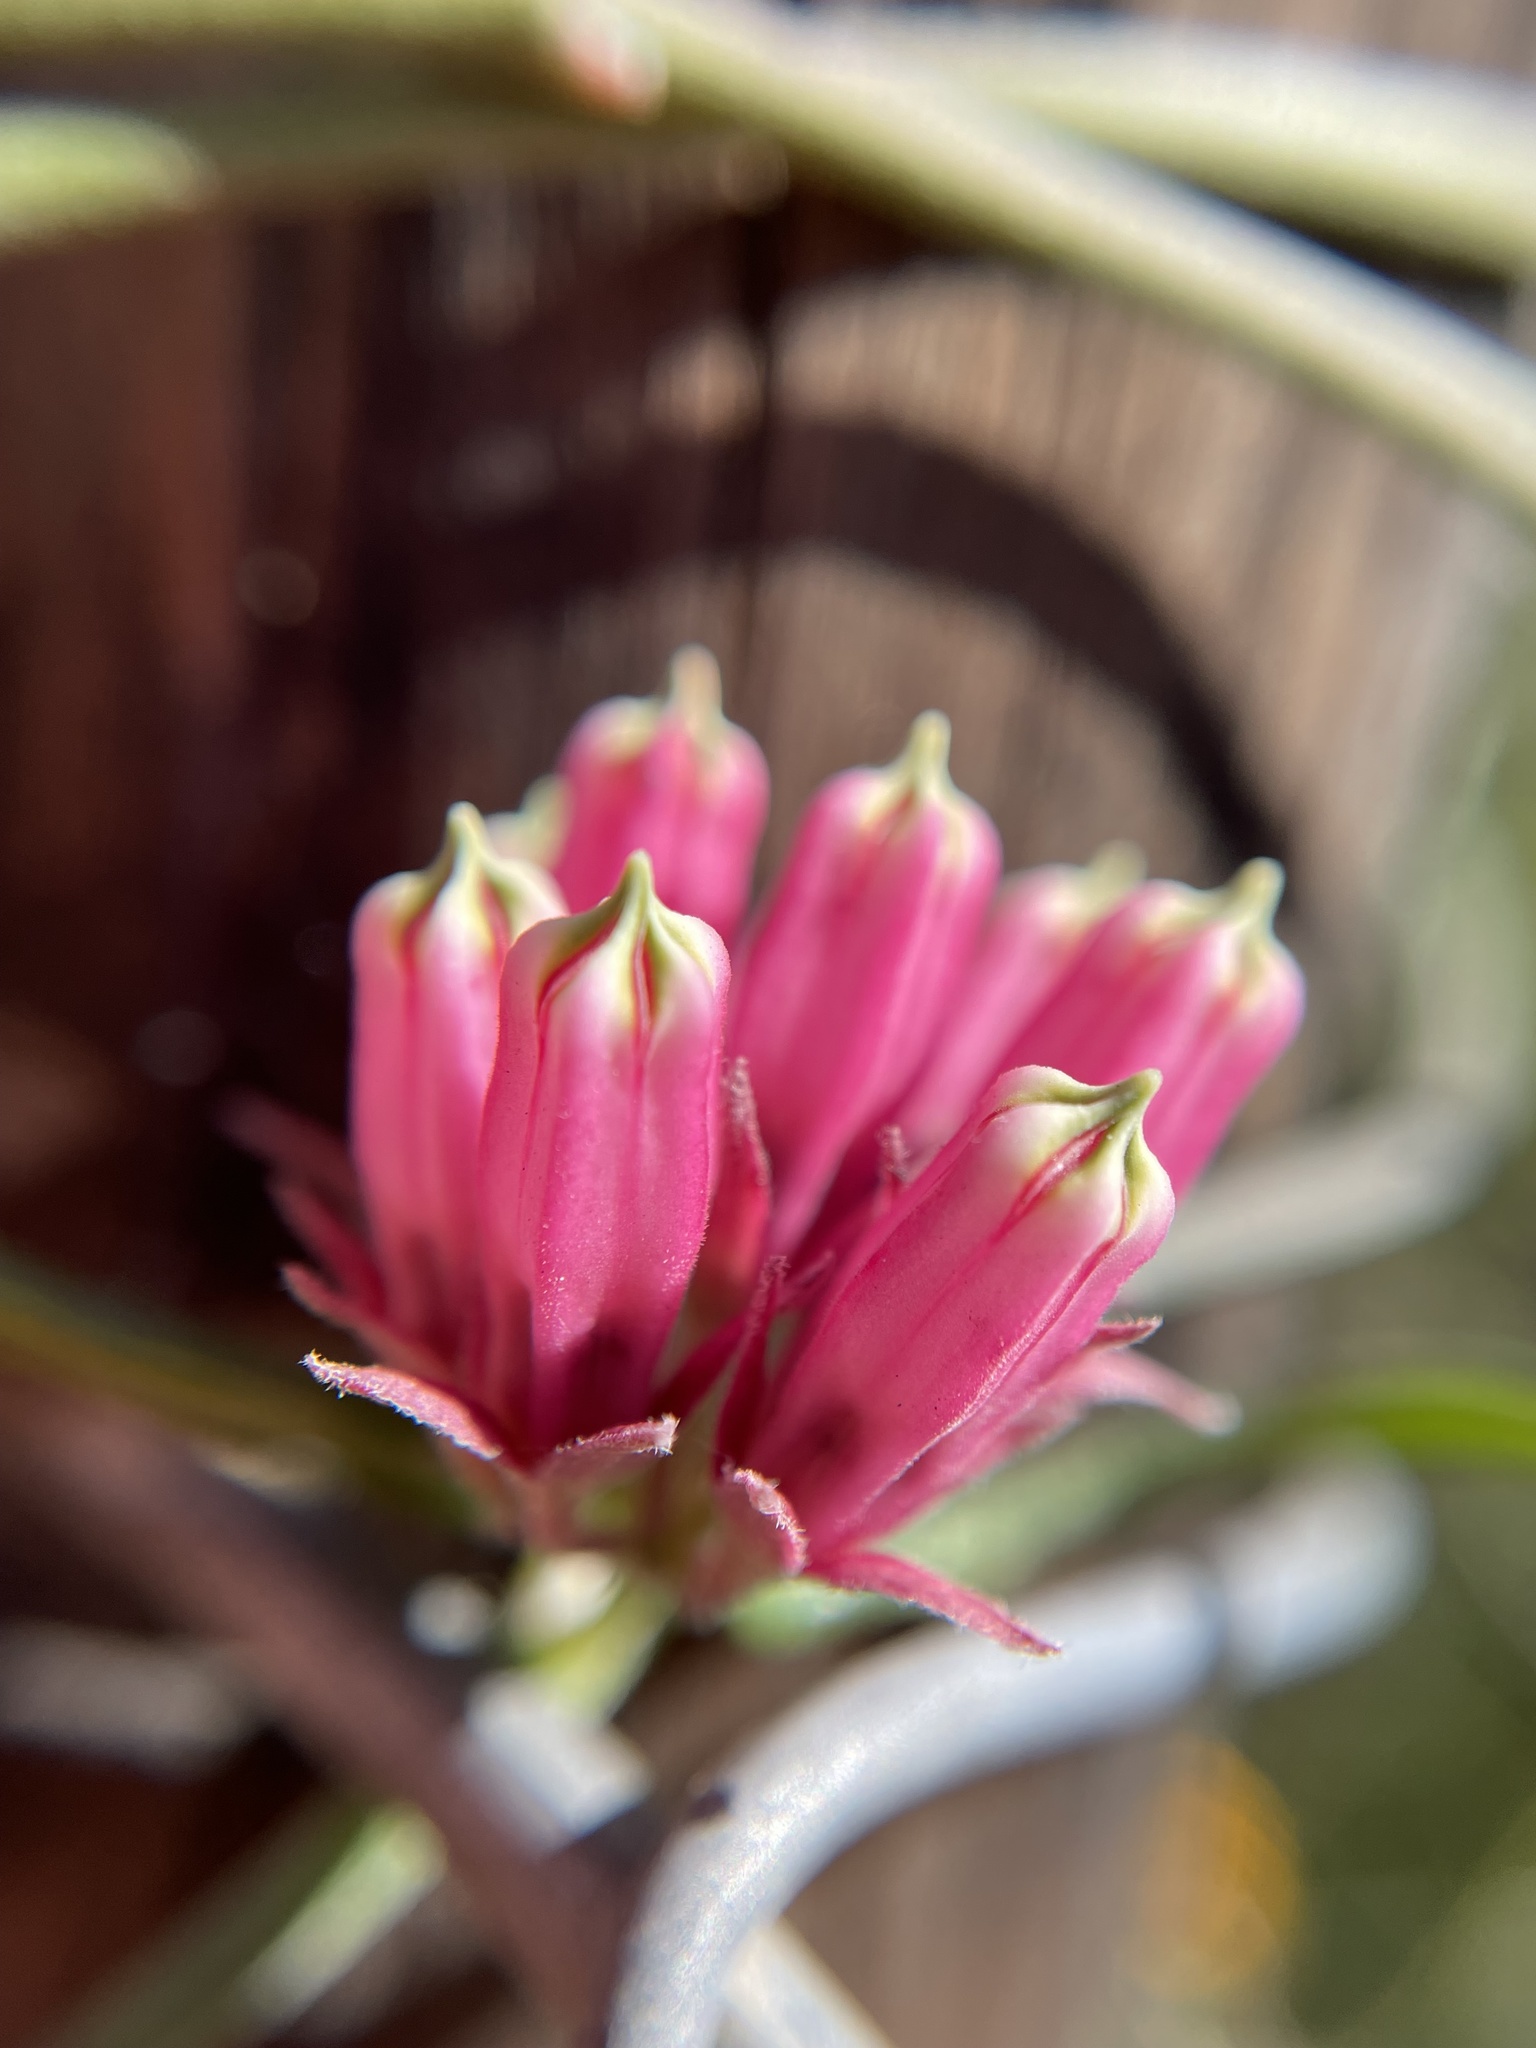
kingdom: Plantae
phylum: Tracheophyta
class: Magnoliopsida
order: Gentianales
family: Apocynaceae
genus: Microloma
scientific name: Microloma sagittatum
